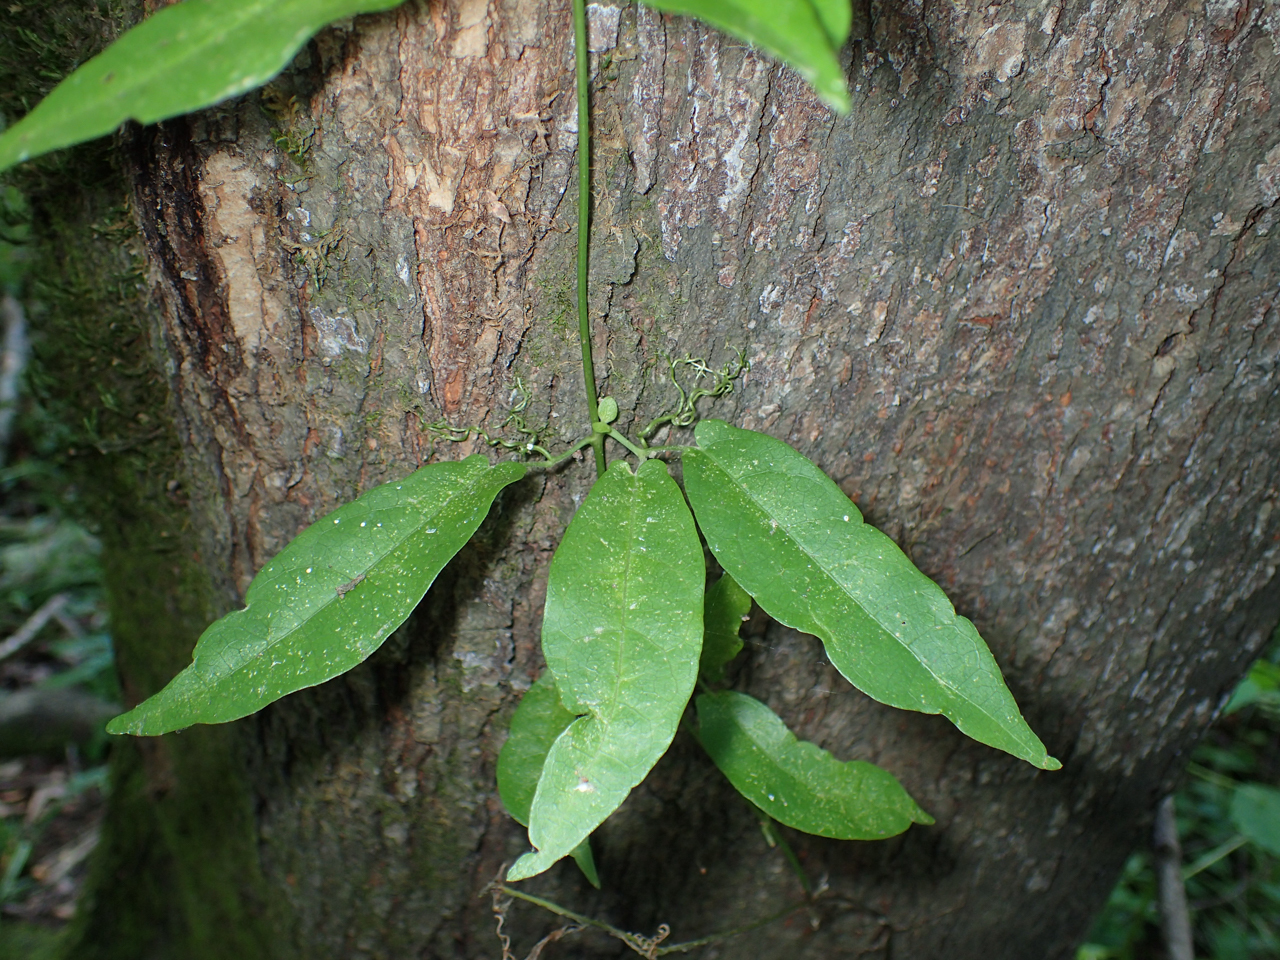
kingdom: Plantae
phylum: Tracheophyta
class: Magnoliopsida
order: Lamiales
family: Bignoniaceae
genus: Bignonia
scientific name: Bignonia capreolata
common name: Crossvine
